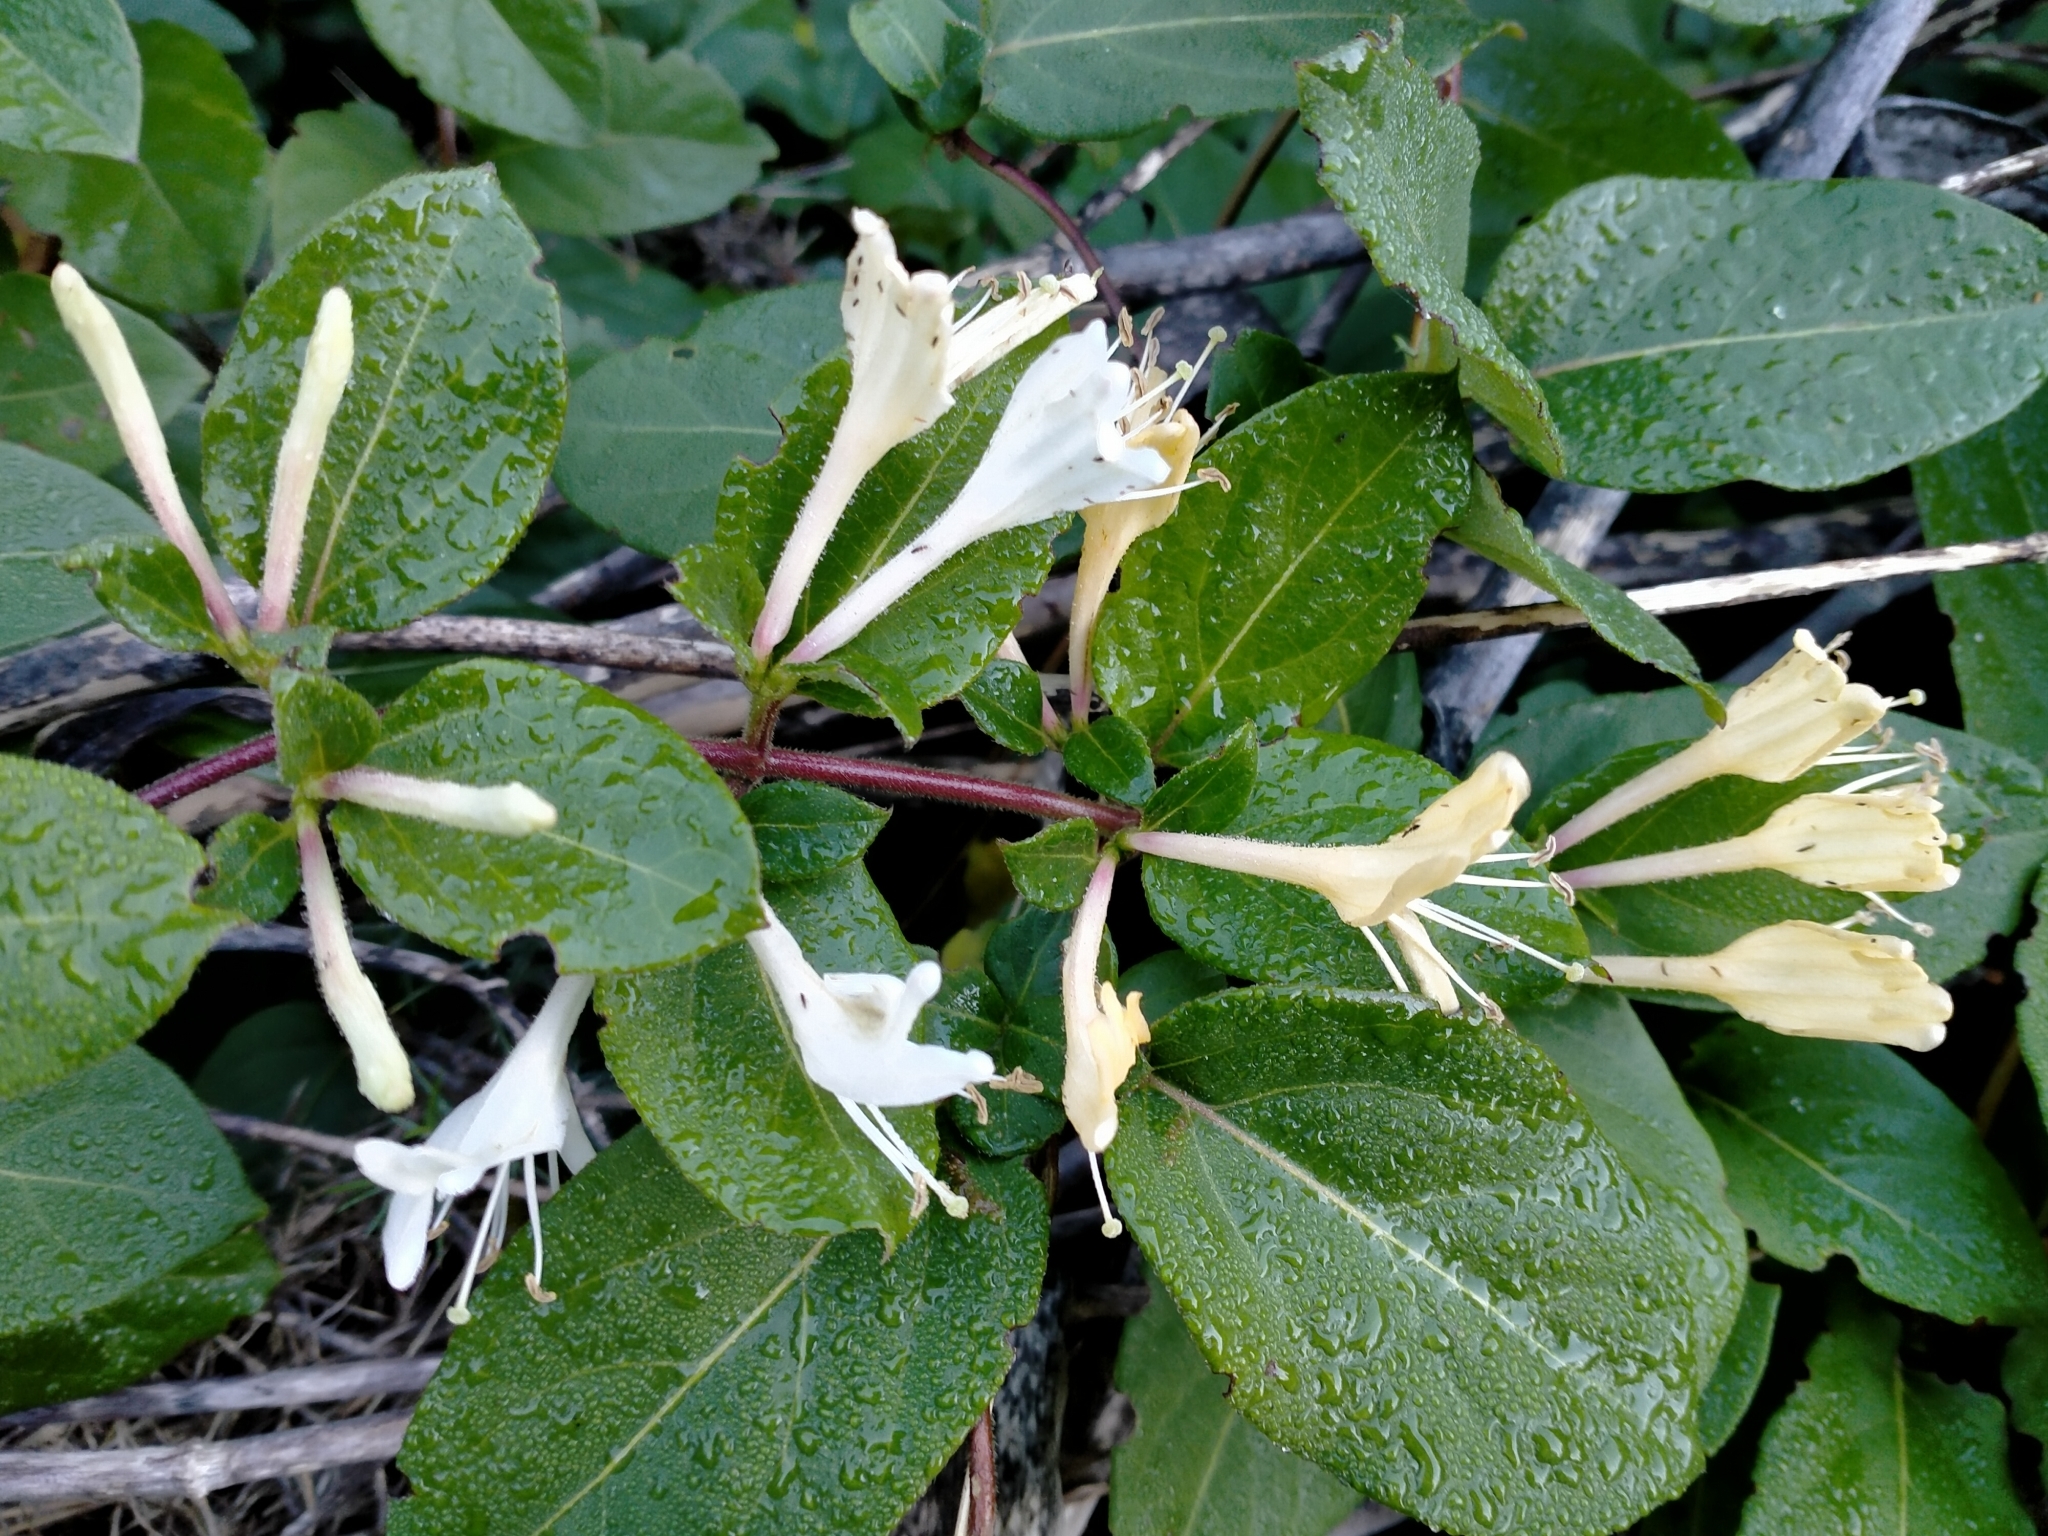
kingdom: Plantae
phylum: Tracheophyta
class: Magnoliopsida
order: Dipsacales
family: Caprifoliaceae
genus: Lonicera
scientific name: Lonicera japonica
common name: Japanese honeysuckle
